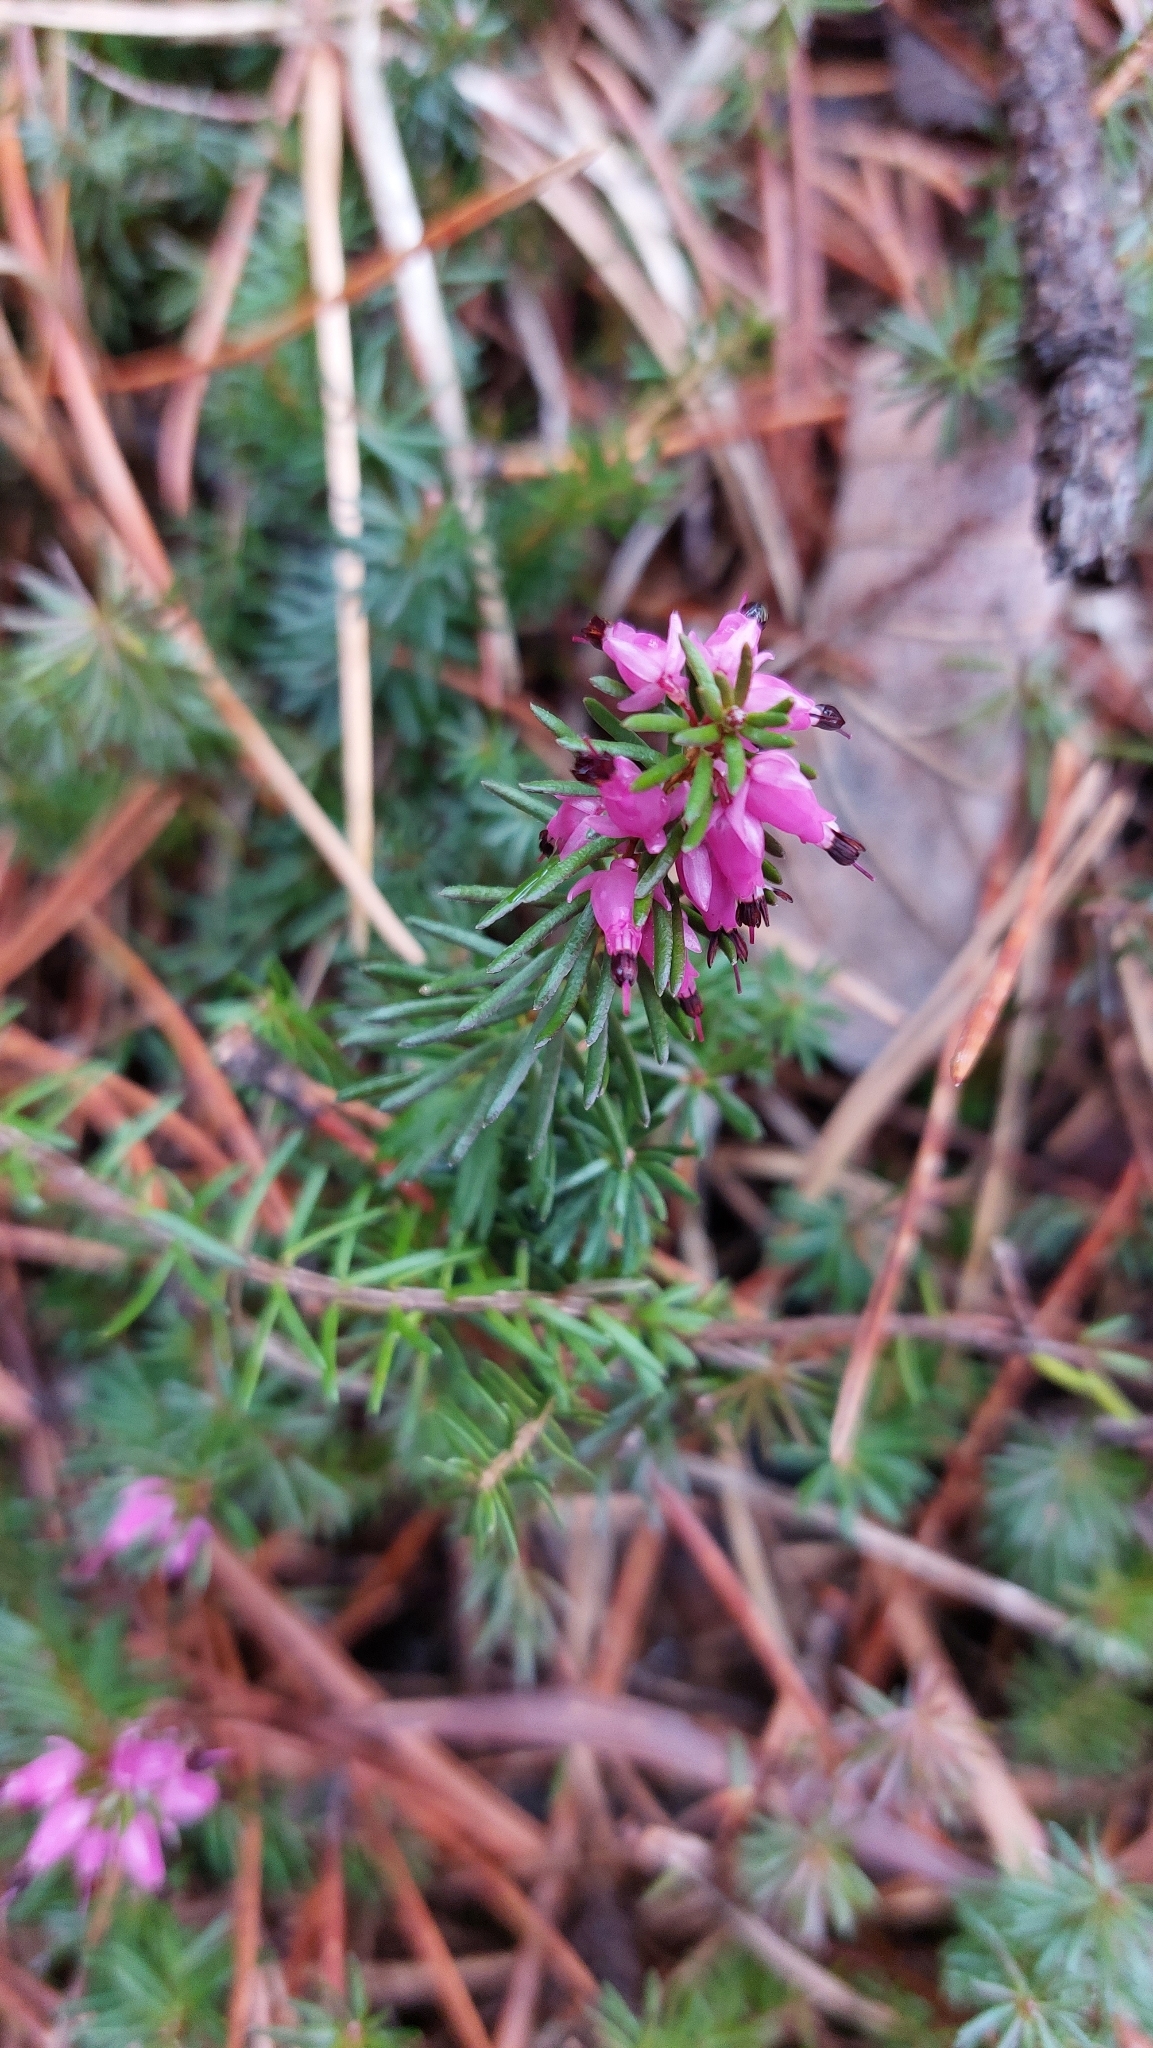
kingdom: Plantae
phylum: Tracheophyta
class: Magnoliopsida
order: Ericales
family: Ericaceae
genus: Erica
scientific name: Erica carnea
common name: Winter heath
